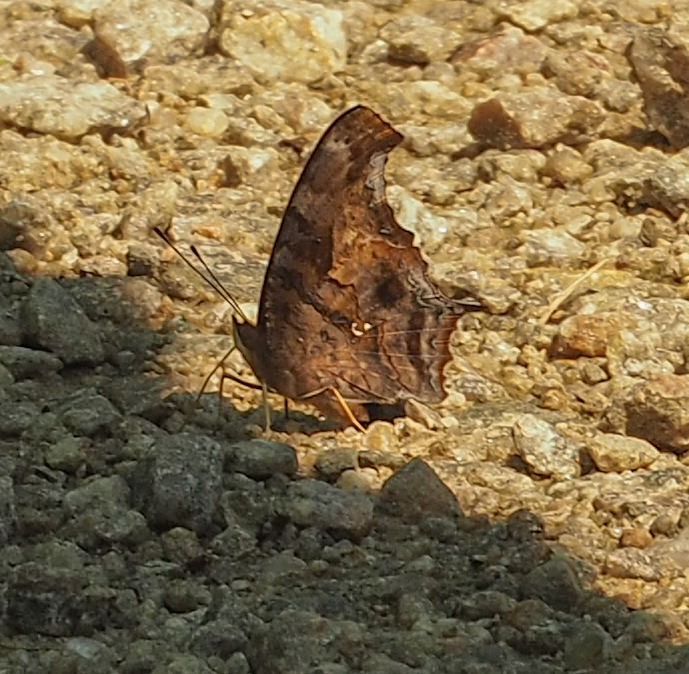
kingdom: Animalia
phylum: Arthropoda
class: Insecta
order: Lepidoptera
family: Nymphalidae
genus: Polygonia
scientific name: Polygonia interrogationis
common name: Question mark
